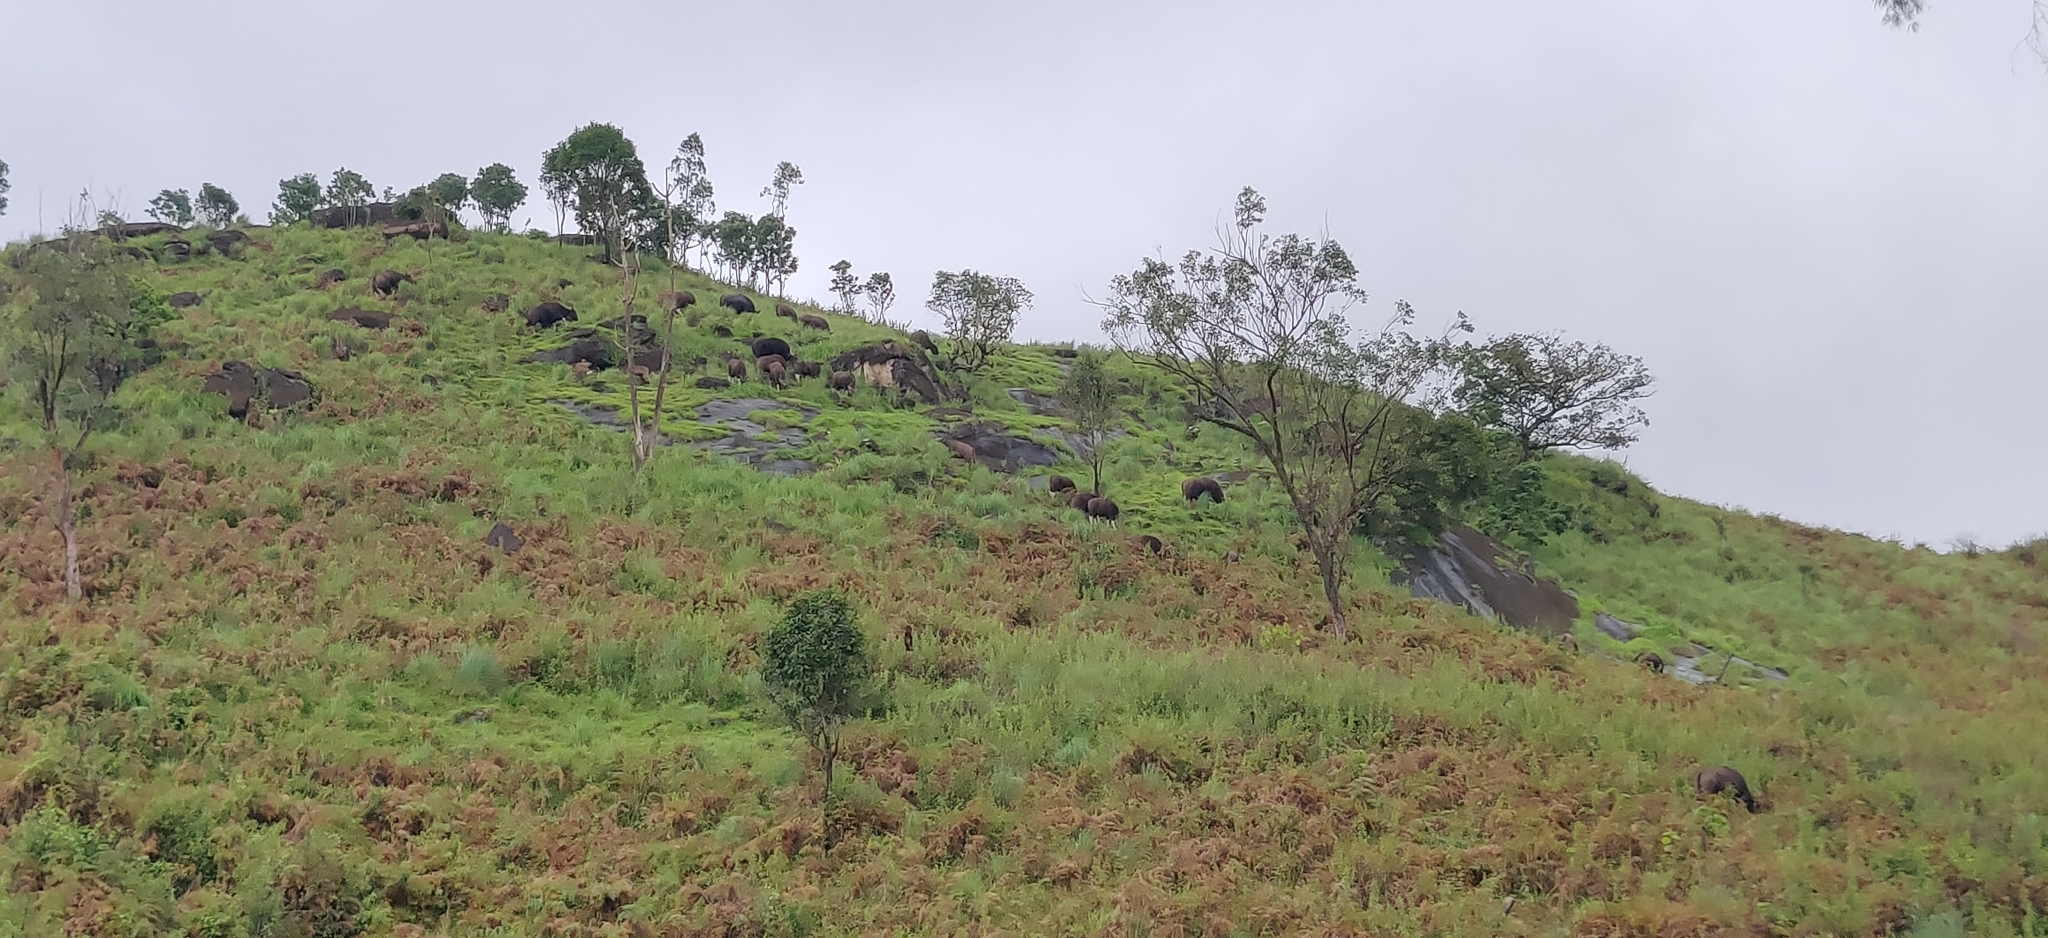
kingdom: Animalia
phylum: Chordata
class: Mammalia
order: Artiodactyla
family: Bovidae
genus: Bos
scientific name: Bos frontalis
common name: Gaur
